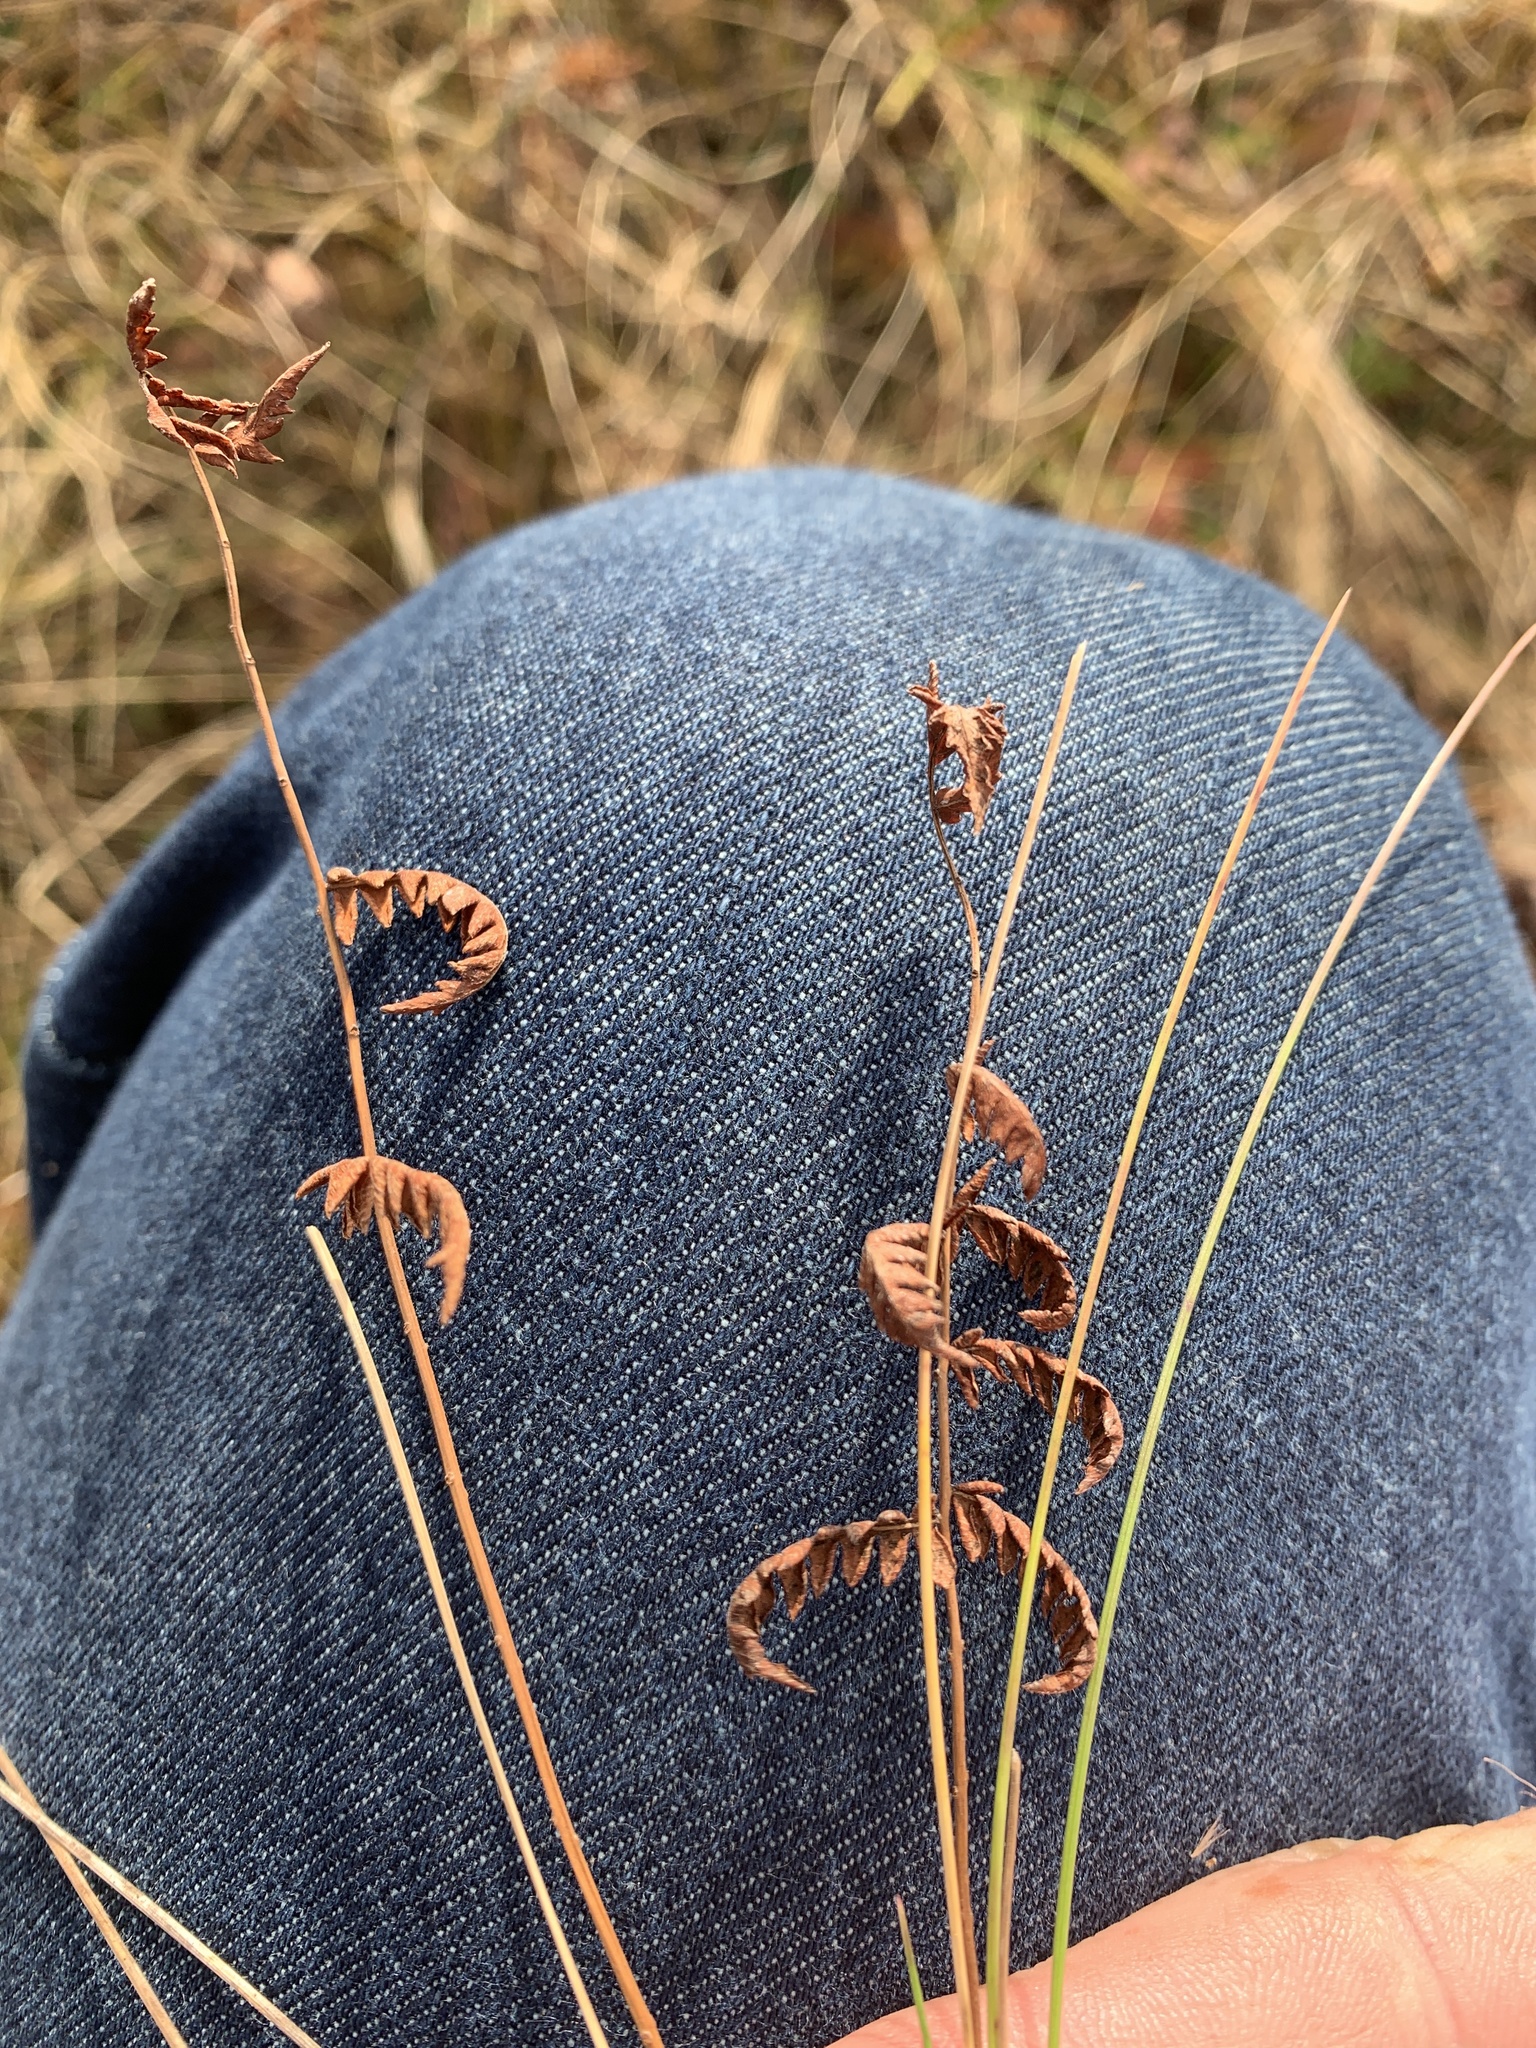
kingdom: Plantae
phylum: Tracheophyta
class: Polypodiopsida
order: Polypodiales
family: Thelypteridaceae
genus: Thelypteris
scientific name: Thelypteris palustris
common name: Marsh fern
